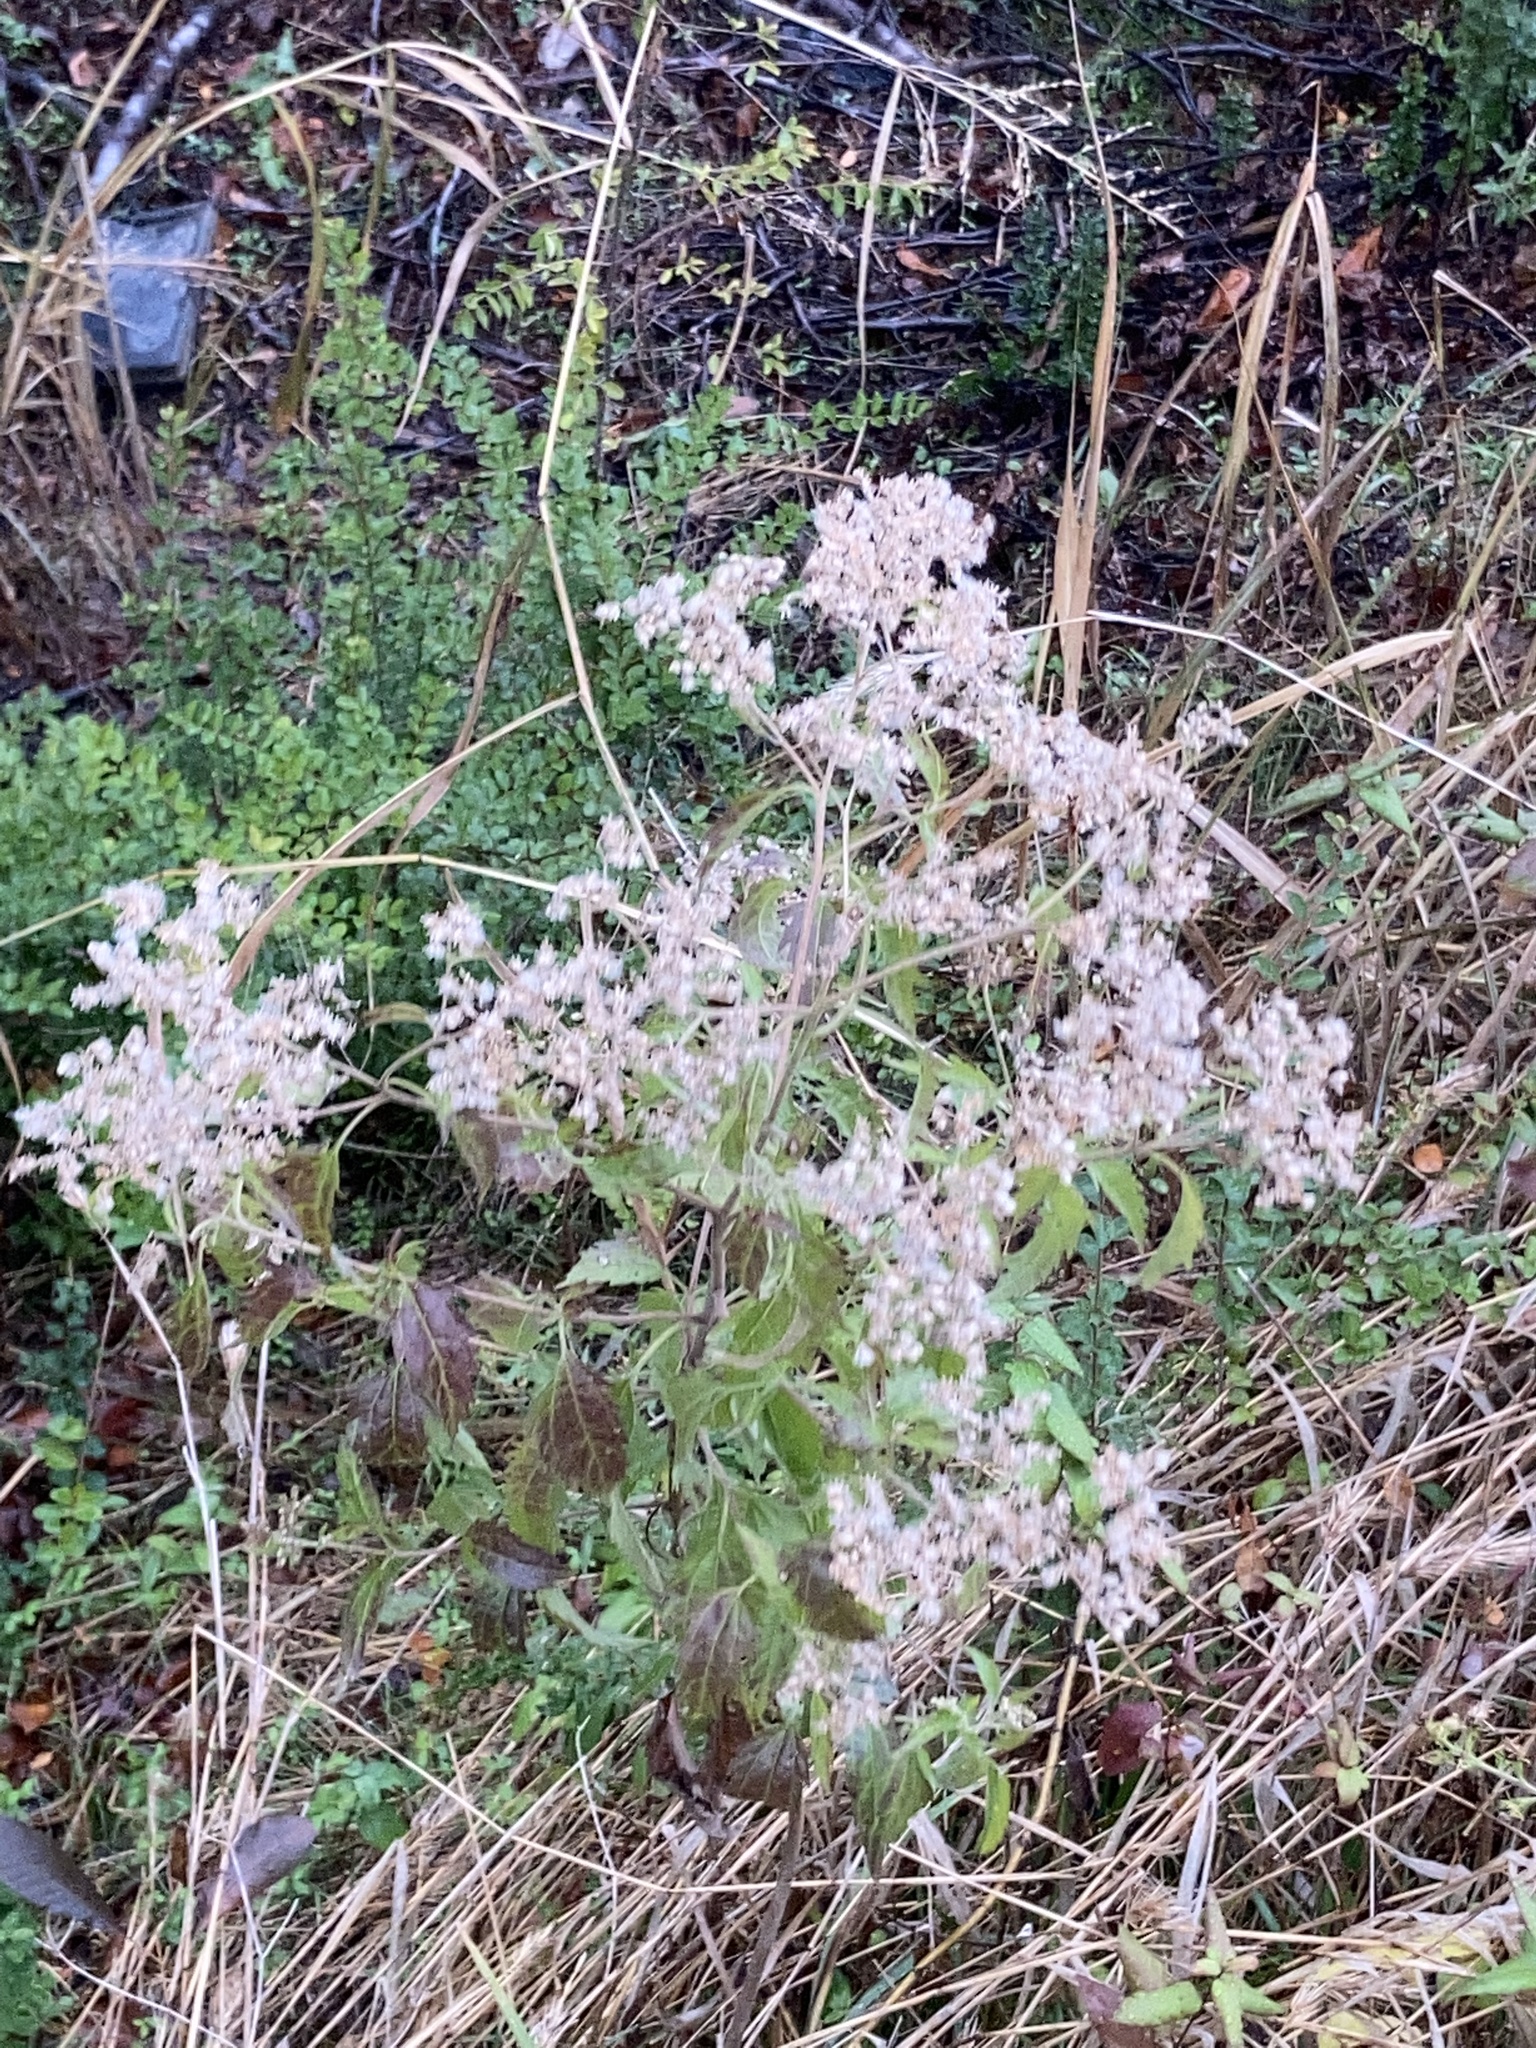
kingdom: Plantae
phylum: Tracheophyta
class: Magnoliopsida
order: Asterales
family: Asteraceae
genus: Eupatorium
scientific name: Eupatorium serotinum
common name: Late boneset
